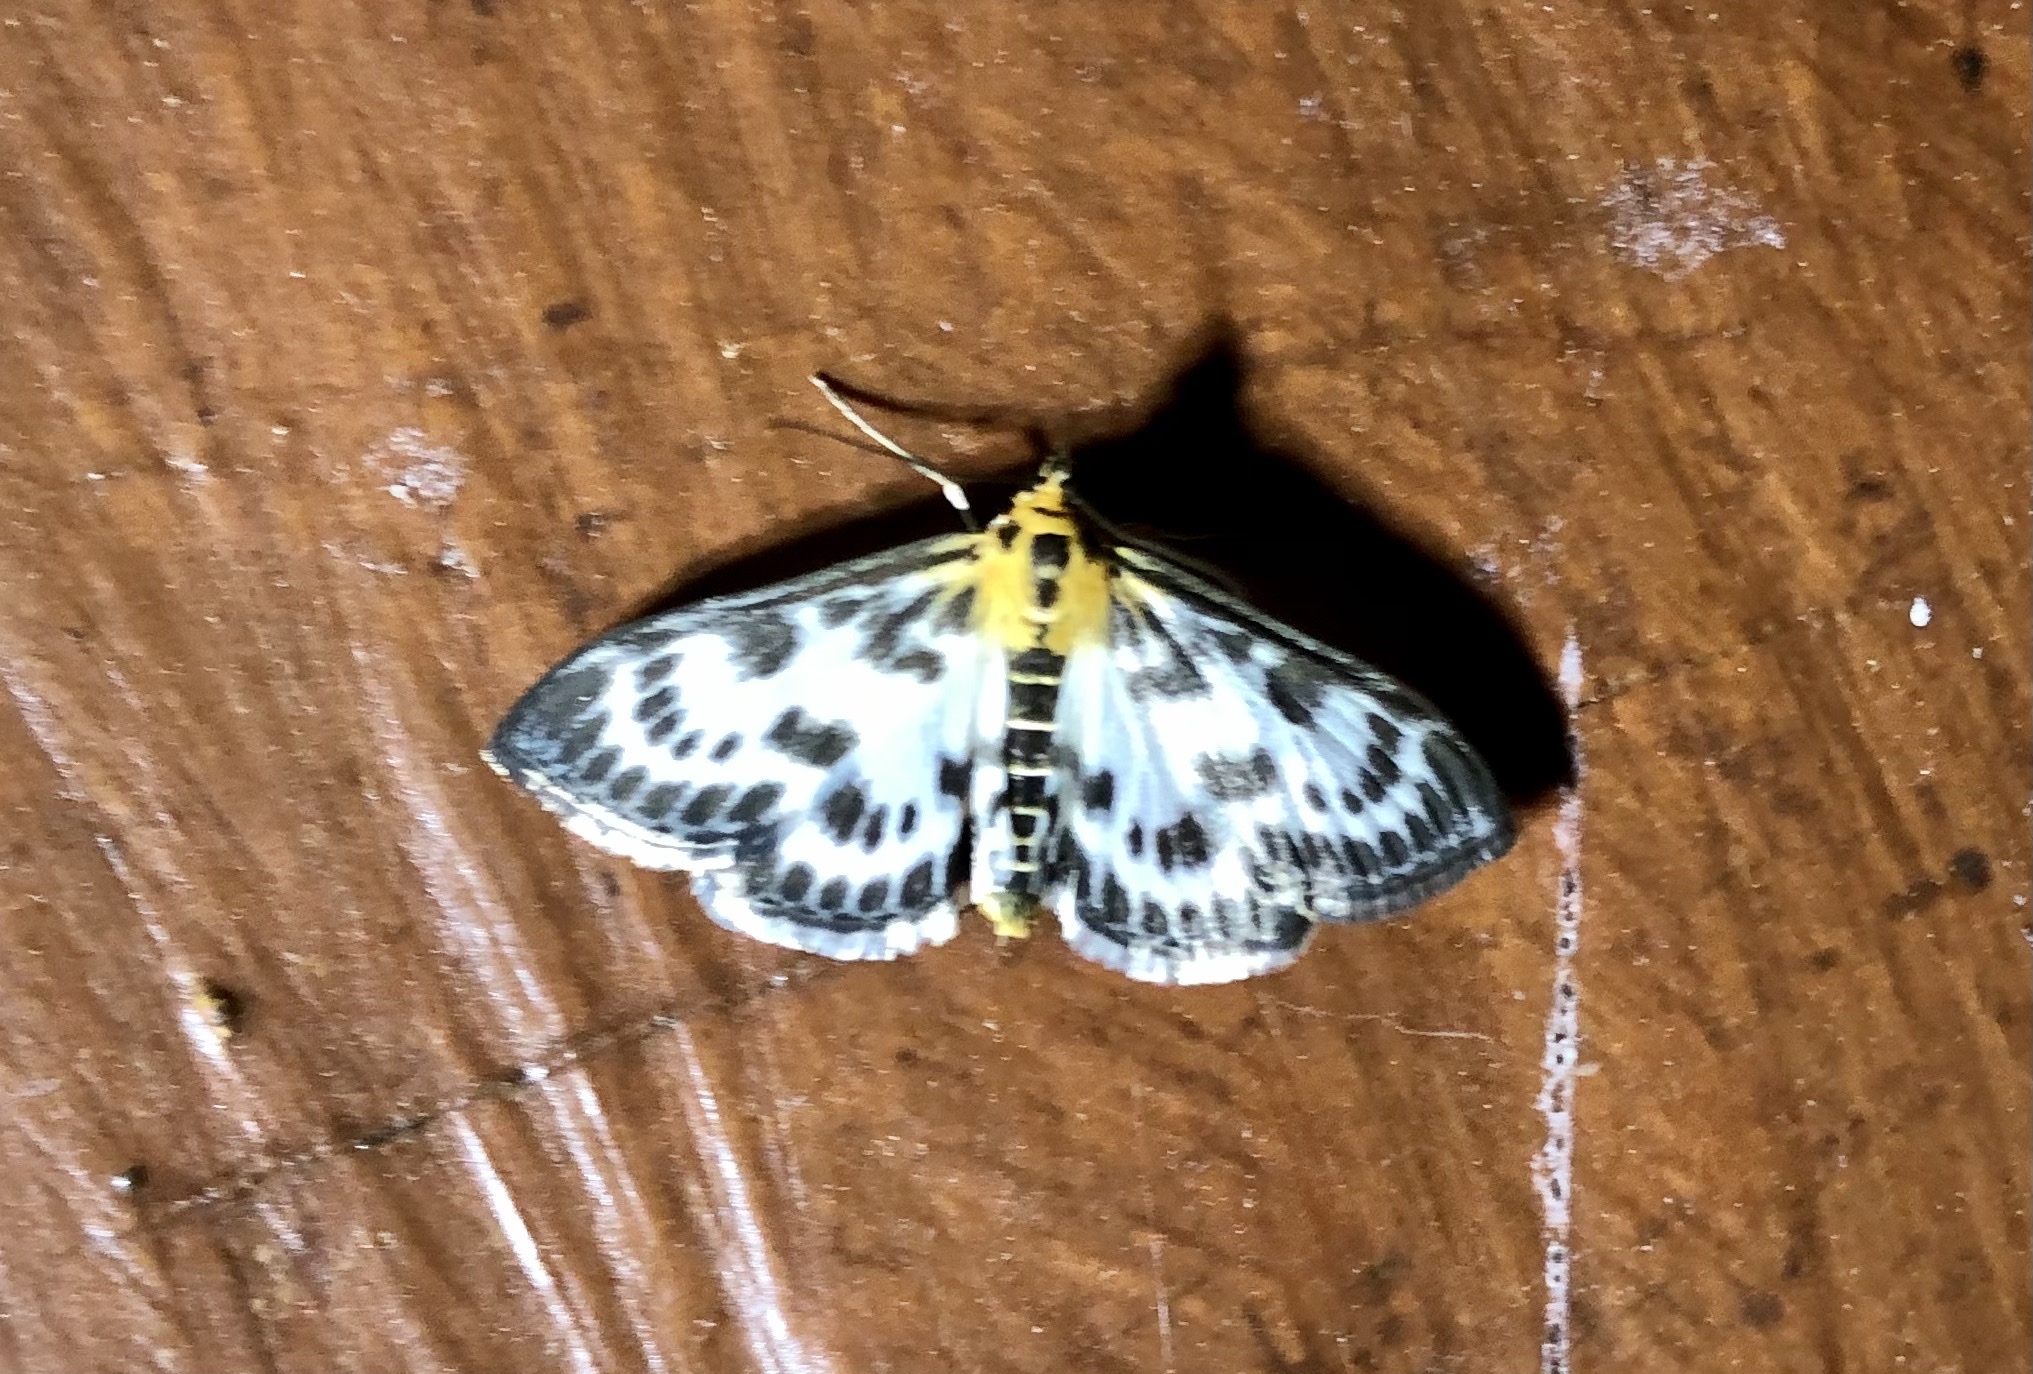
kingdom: Animalia
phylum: Arthropoda
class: Insecta
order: Lepidoptera
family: Crambidae
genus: Anania
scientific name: Anania hortulata
